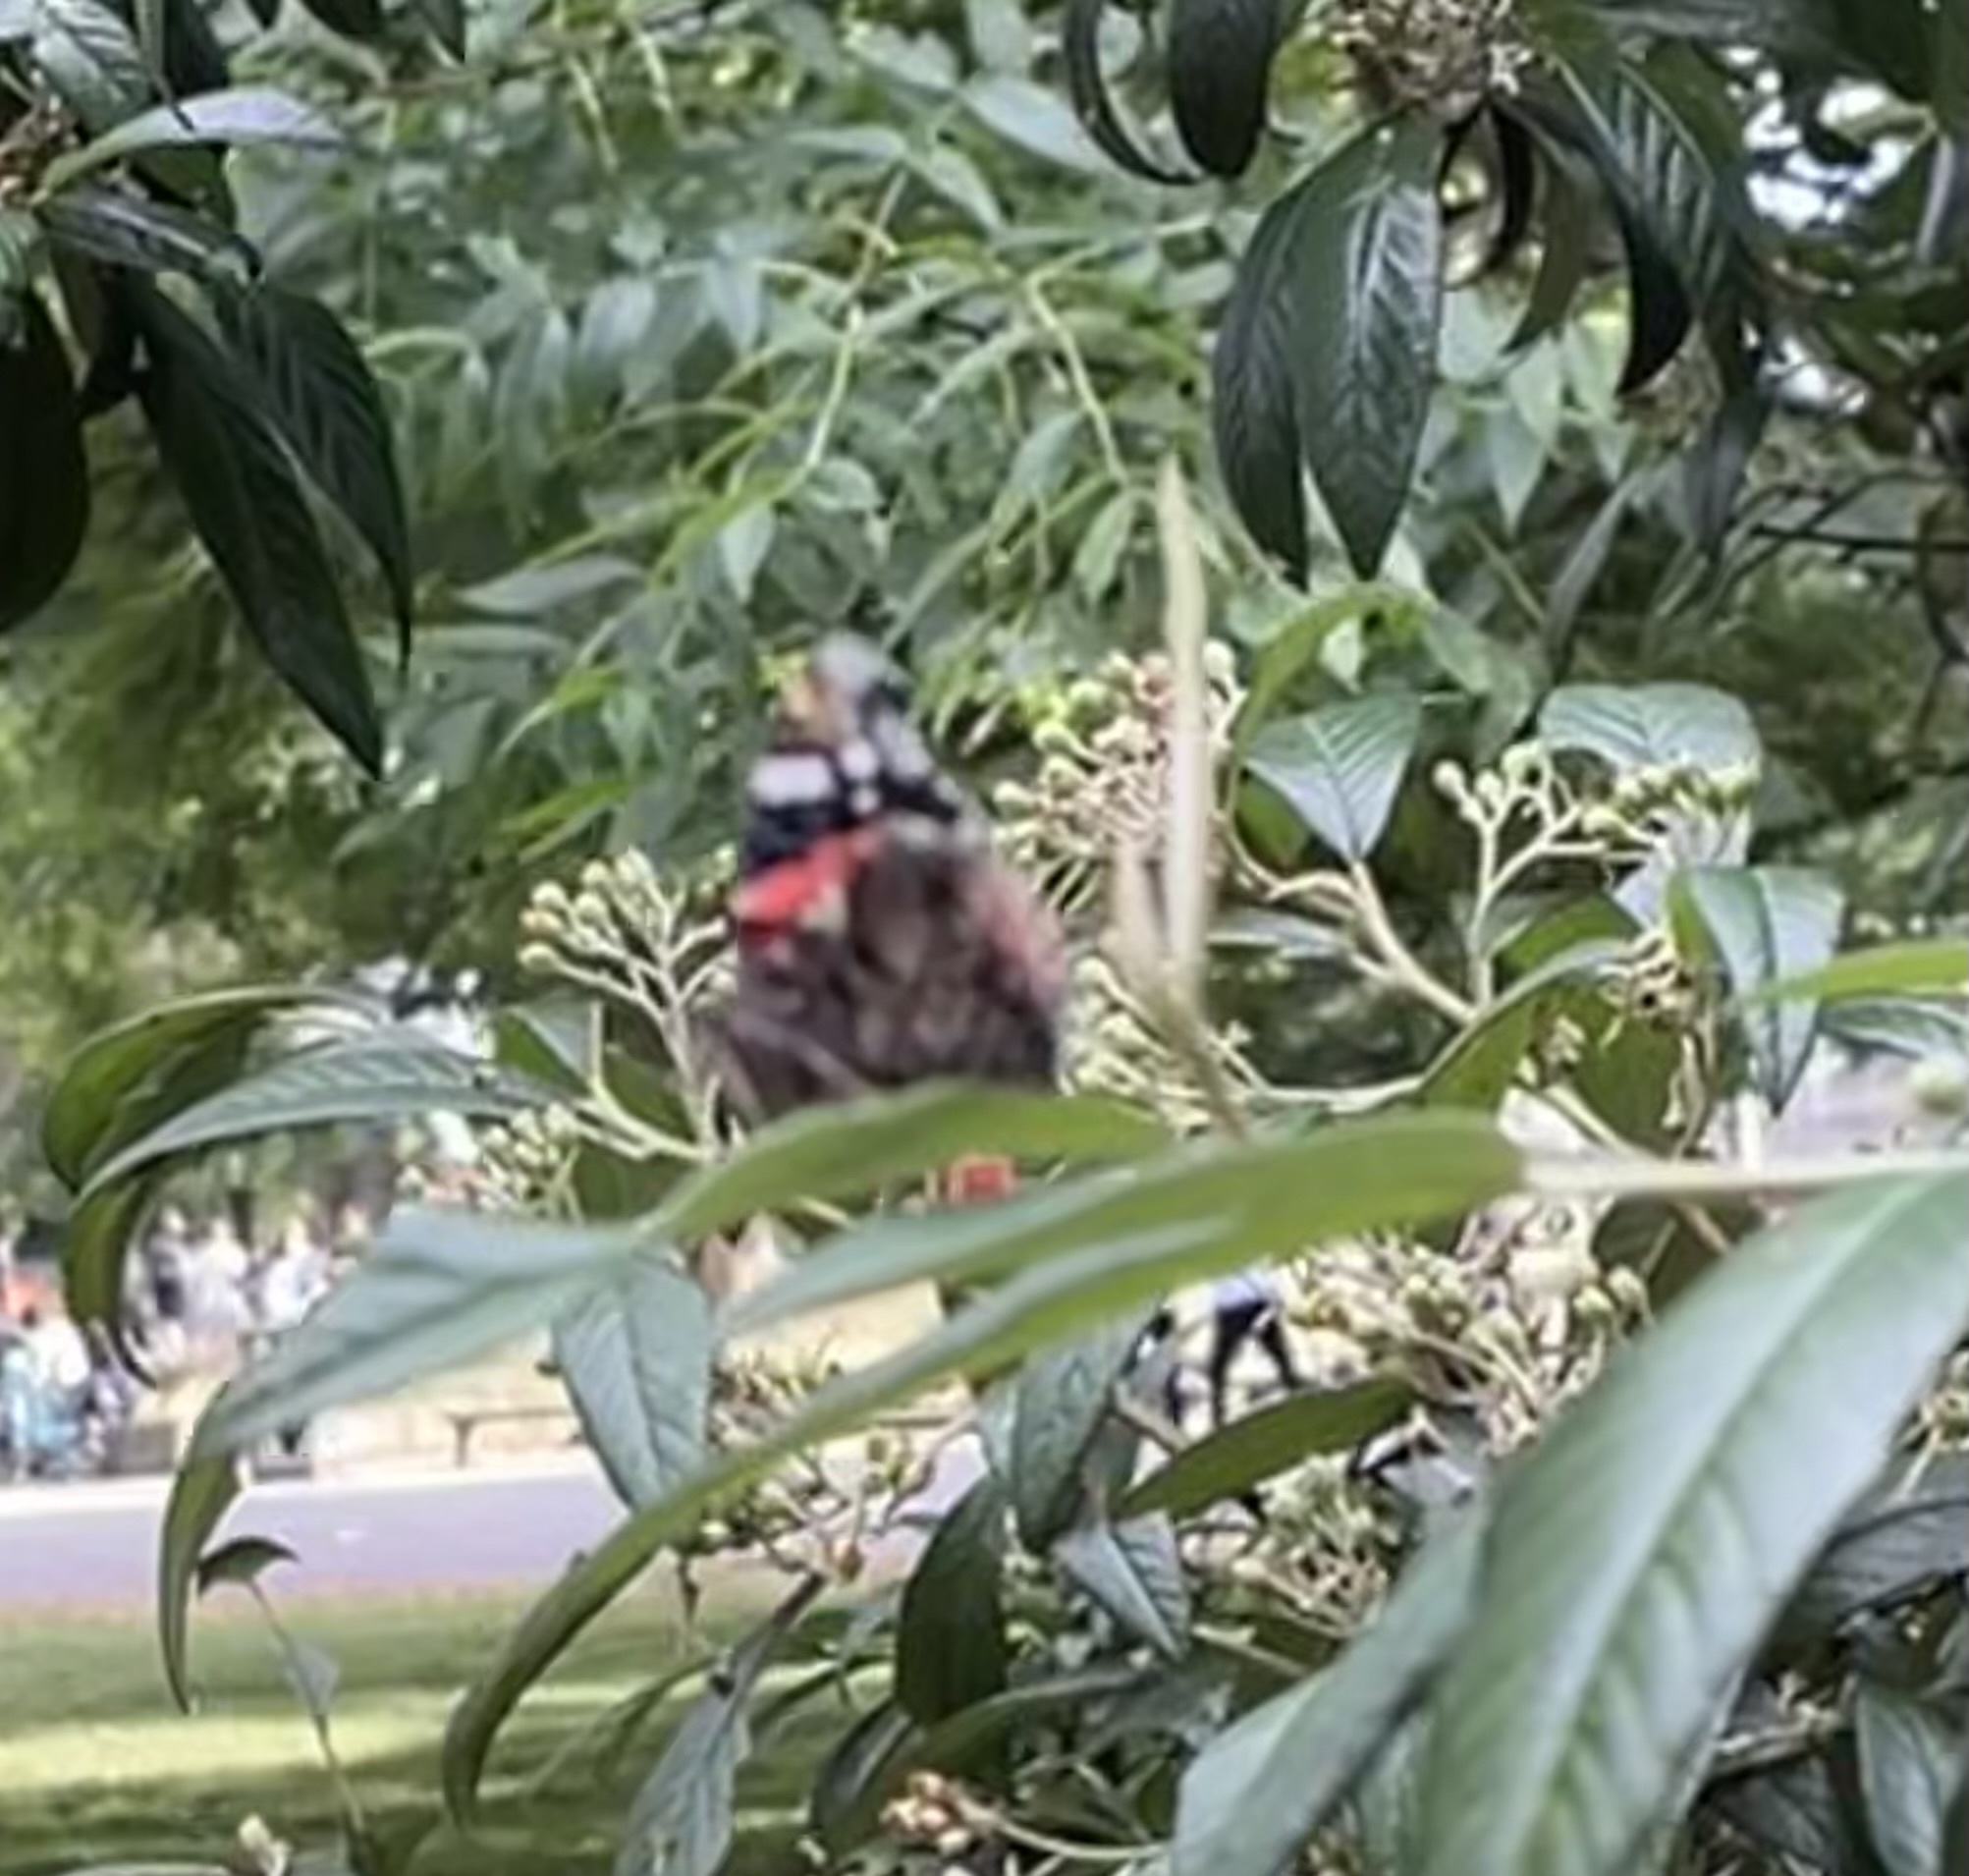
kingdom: Animalia
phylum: Arthropoda
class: Insecta
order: Lepidoptera
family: Nymphalidae
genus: Vanessa
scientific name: Vanessa atalanta
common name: Red admiral
